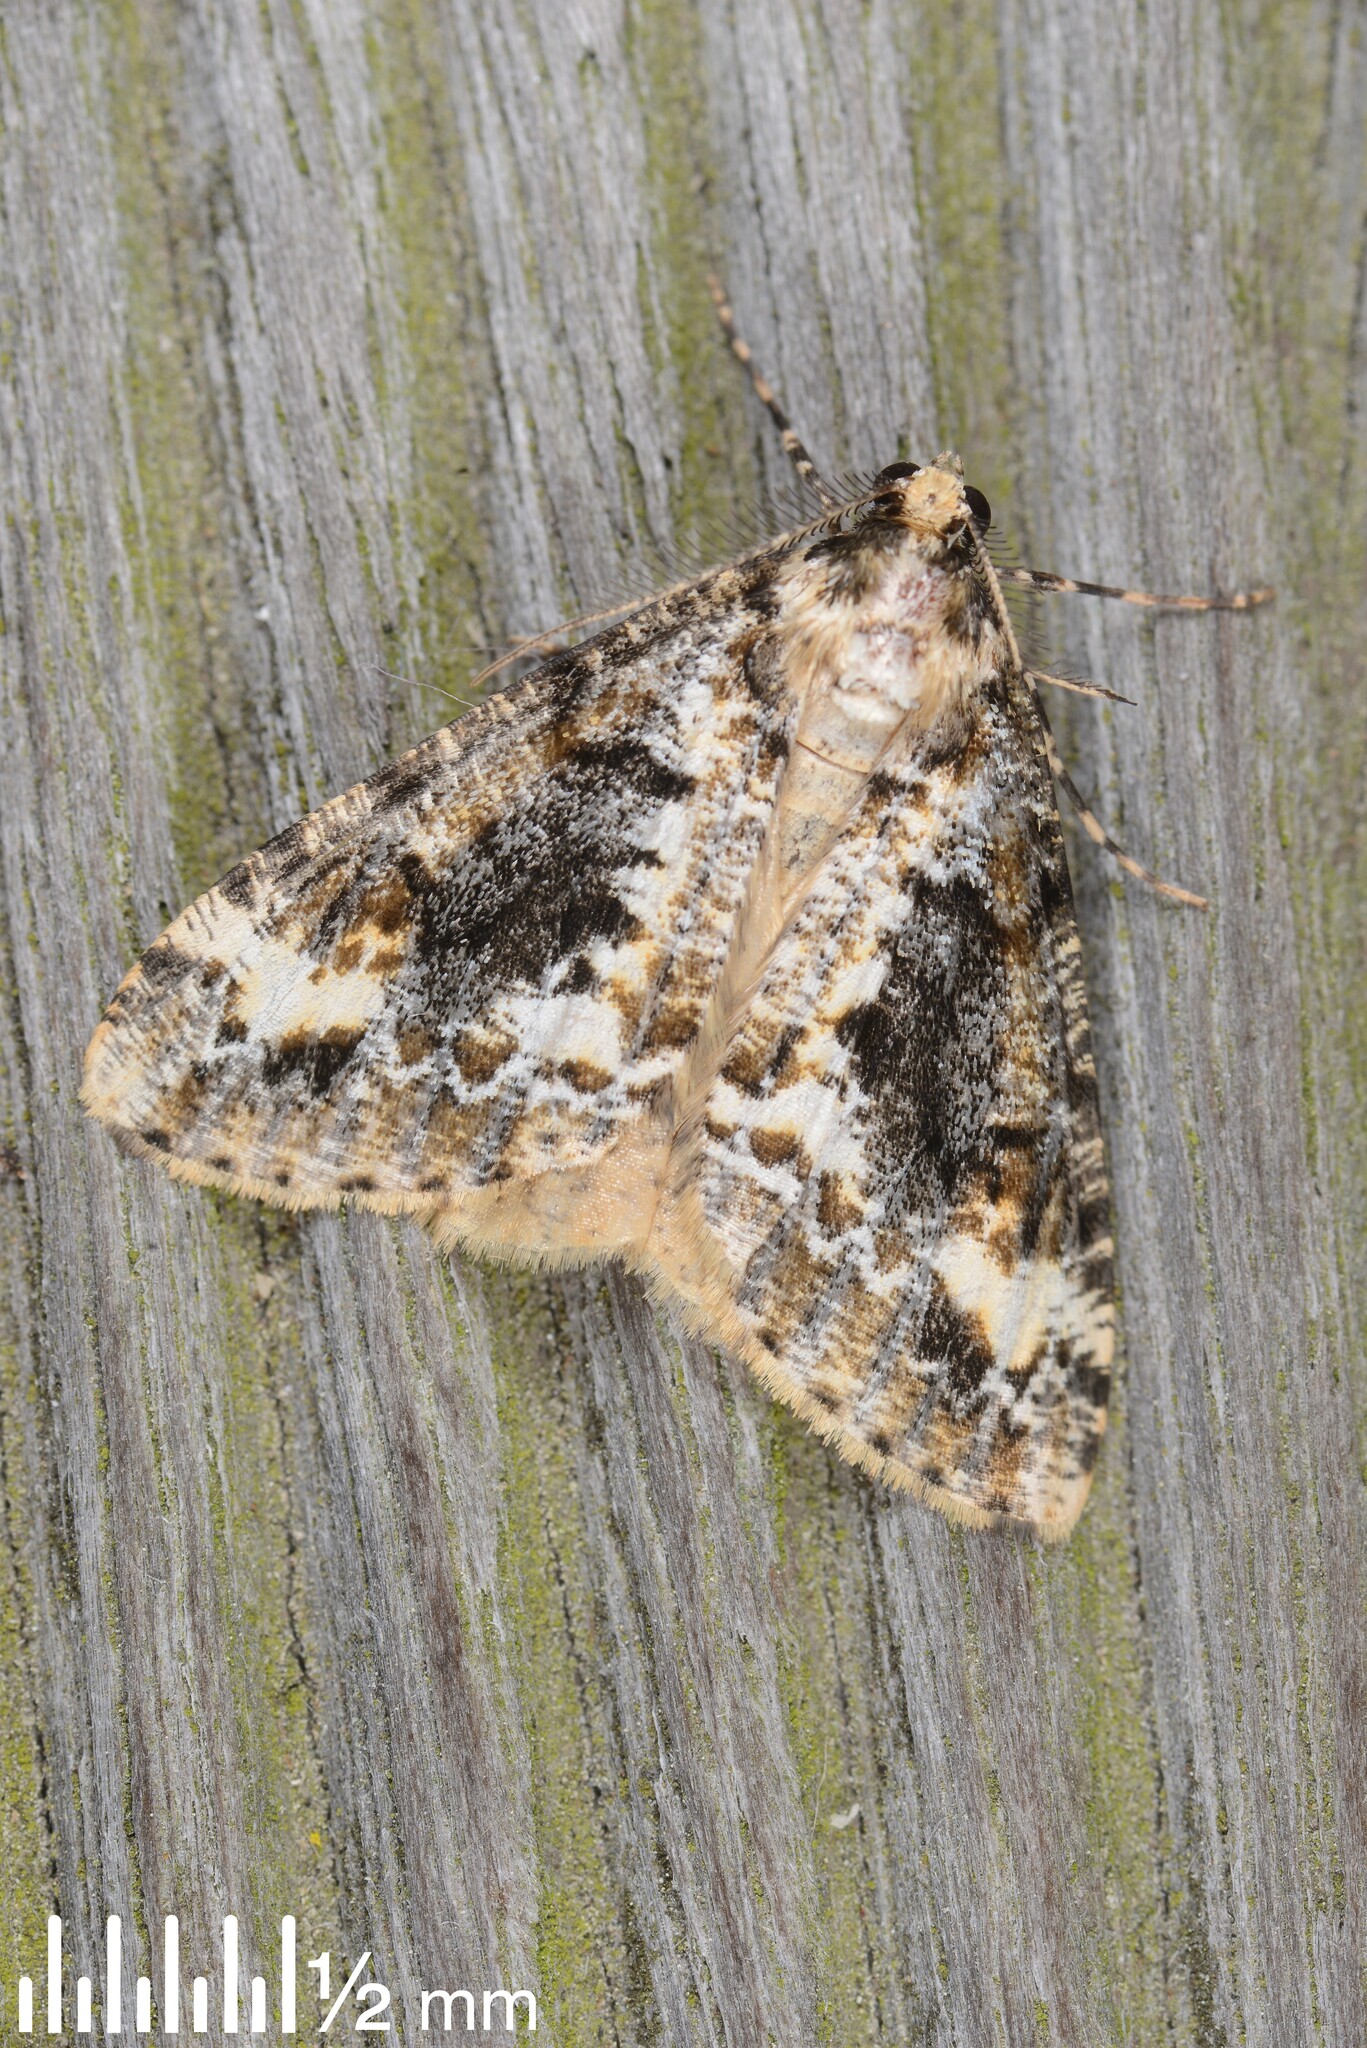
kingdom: Animalia
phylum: Arthropoda
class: Insecta
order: Lepidoptera
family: Geometridae
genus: Pseudocoremia
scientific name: Pseudocoremia leucelaea
